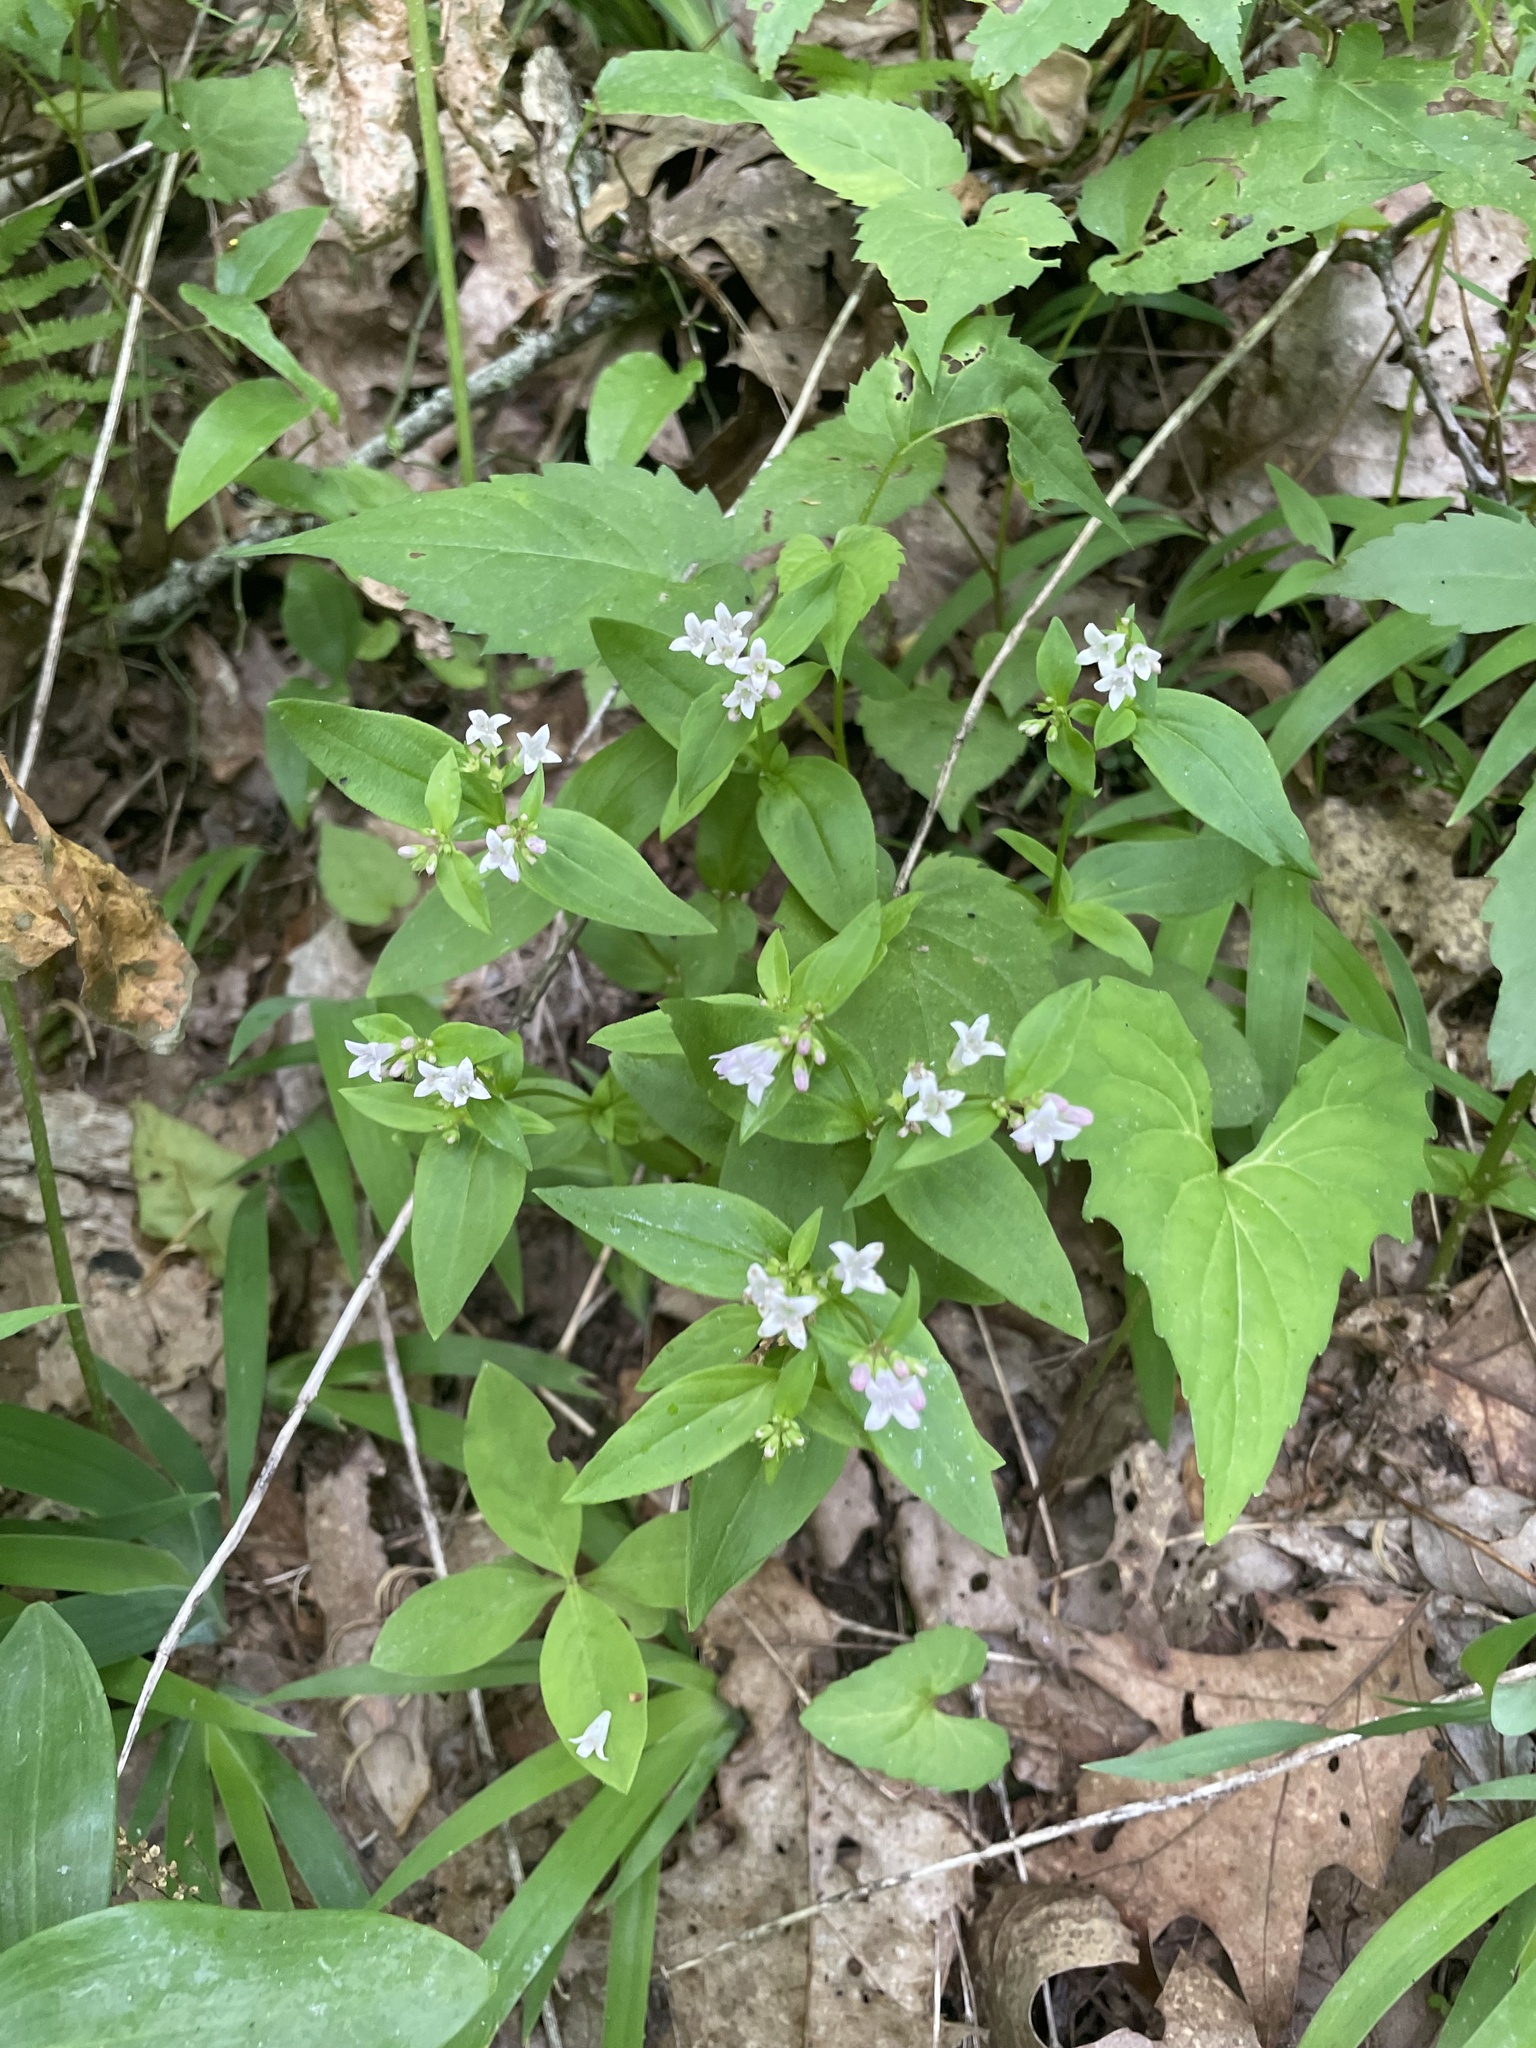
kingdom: Plantae
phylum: Tracheophyta
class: Magnoliopsida
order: Gentianales
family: Rubiaceae
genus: Houstonia
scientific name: Houstonia purpurea
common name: Summer bluet
